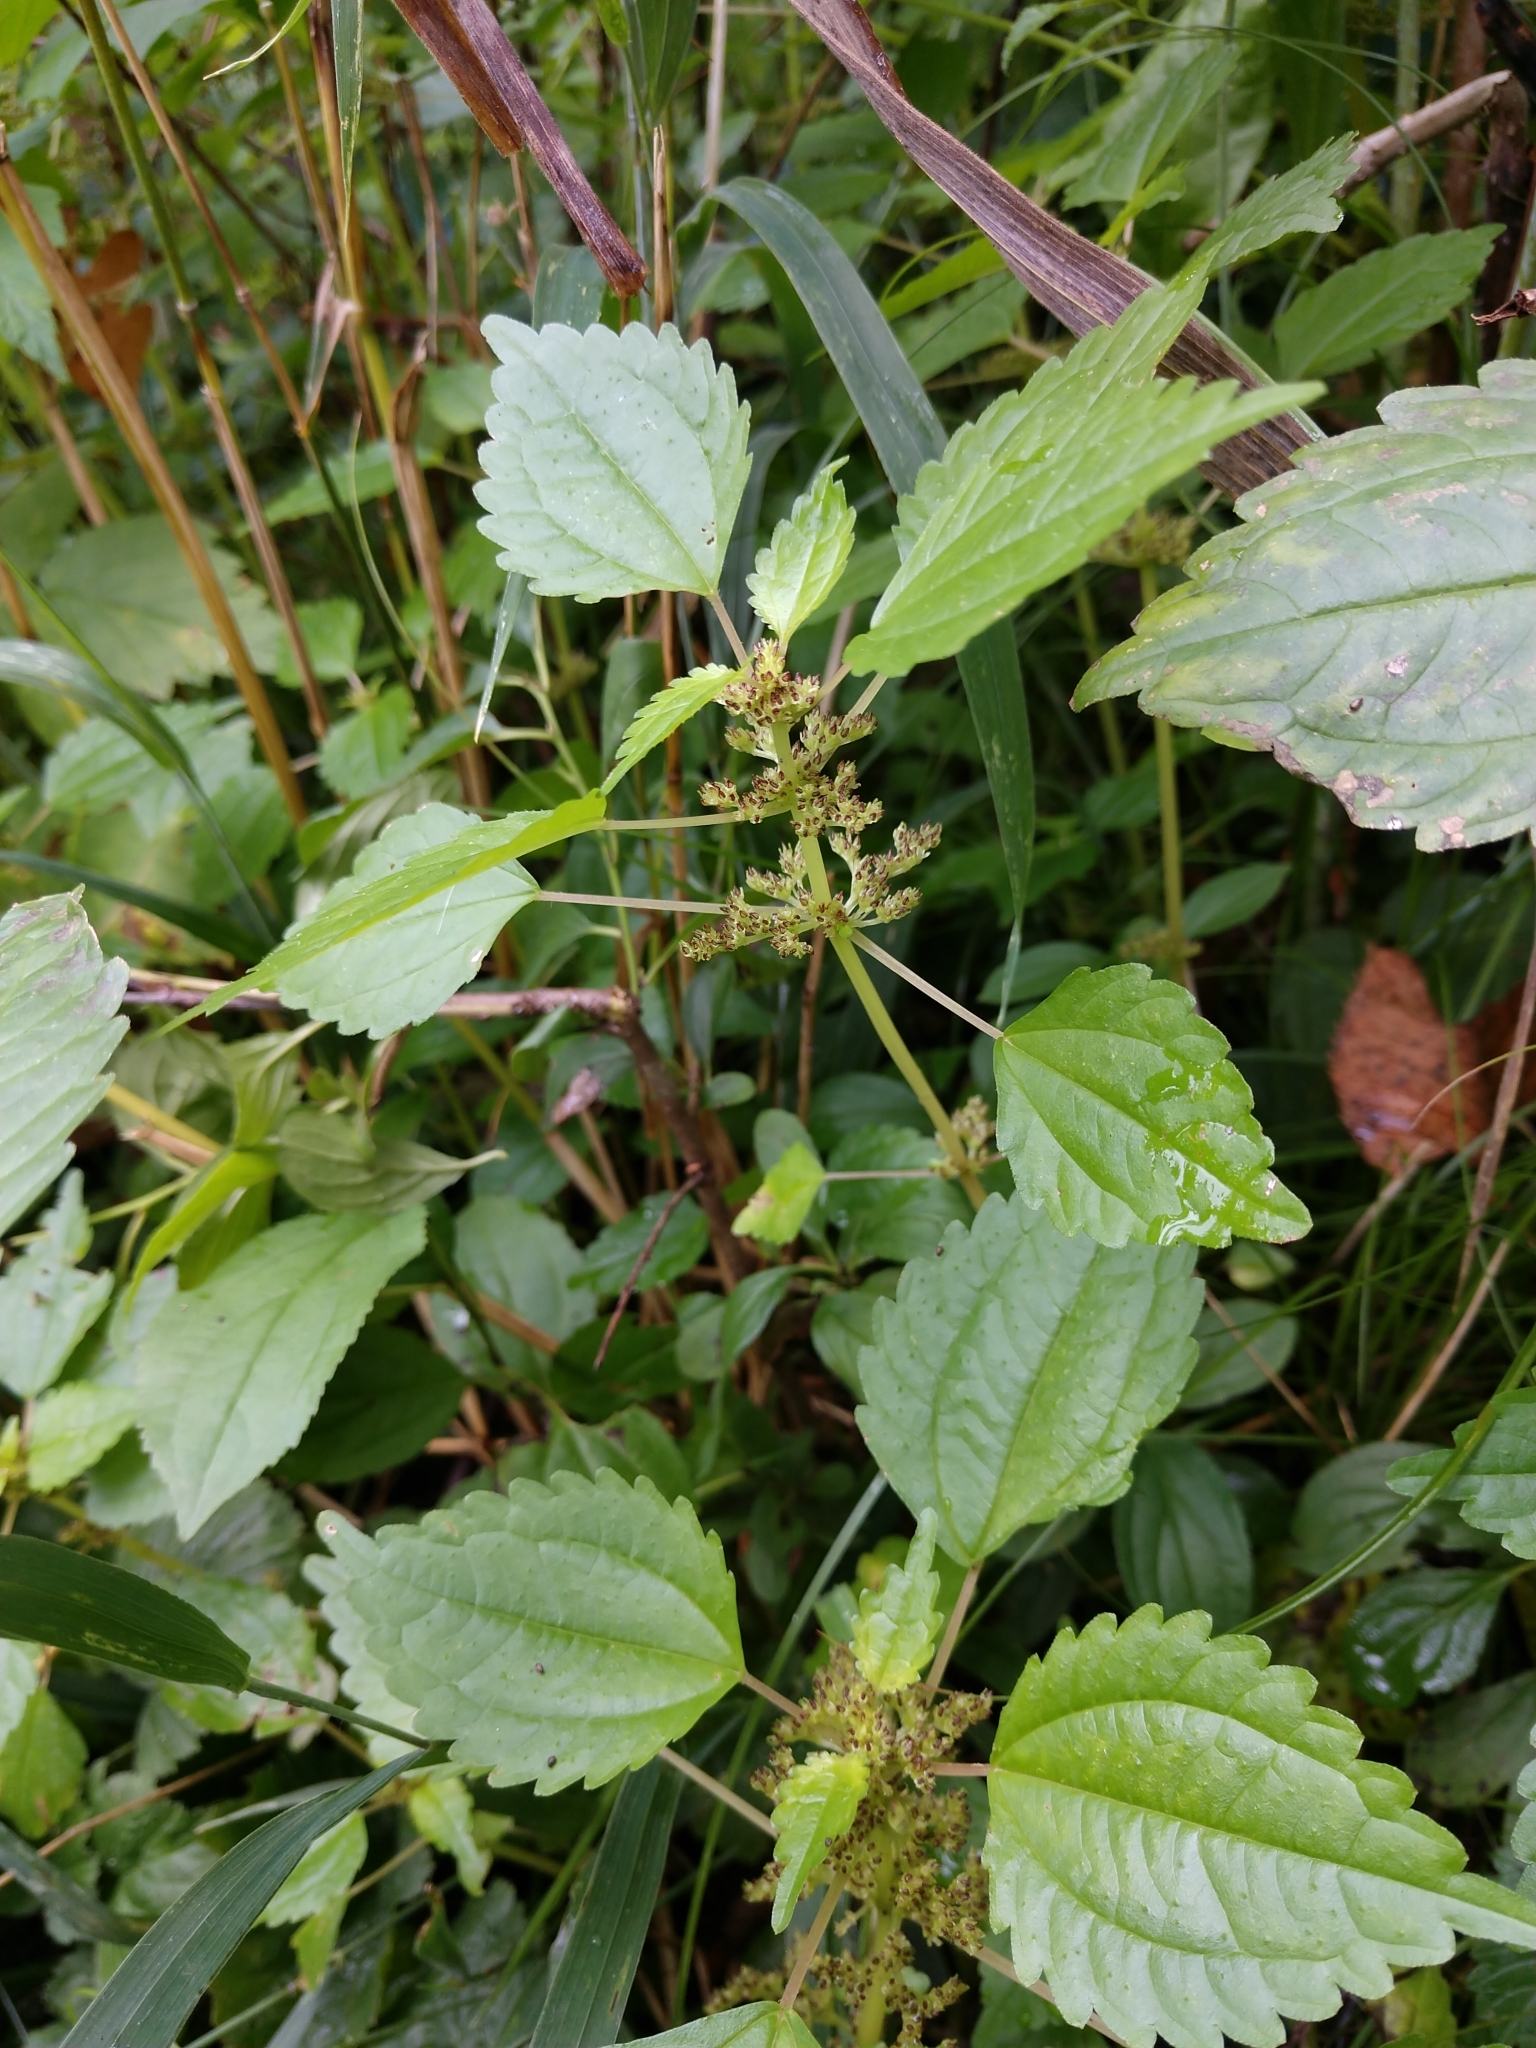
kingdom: Plantae
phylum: Tracheophyta
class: Magnoliopsida
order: Rosales
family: Urticaceae
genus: Pilea
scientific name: Pilea pumila
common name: Clearweed
